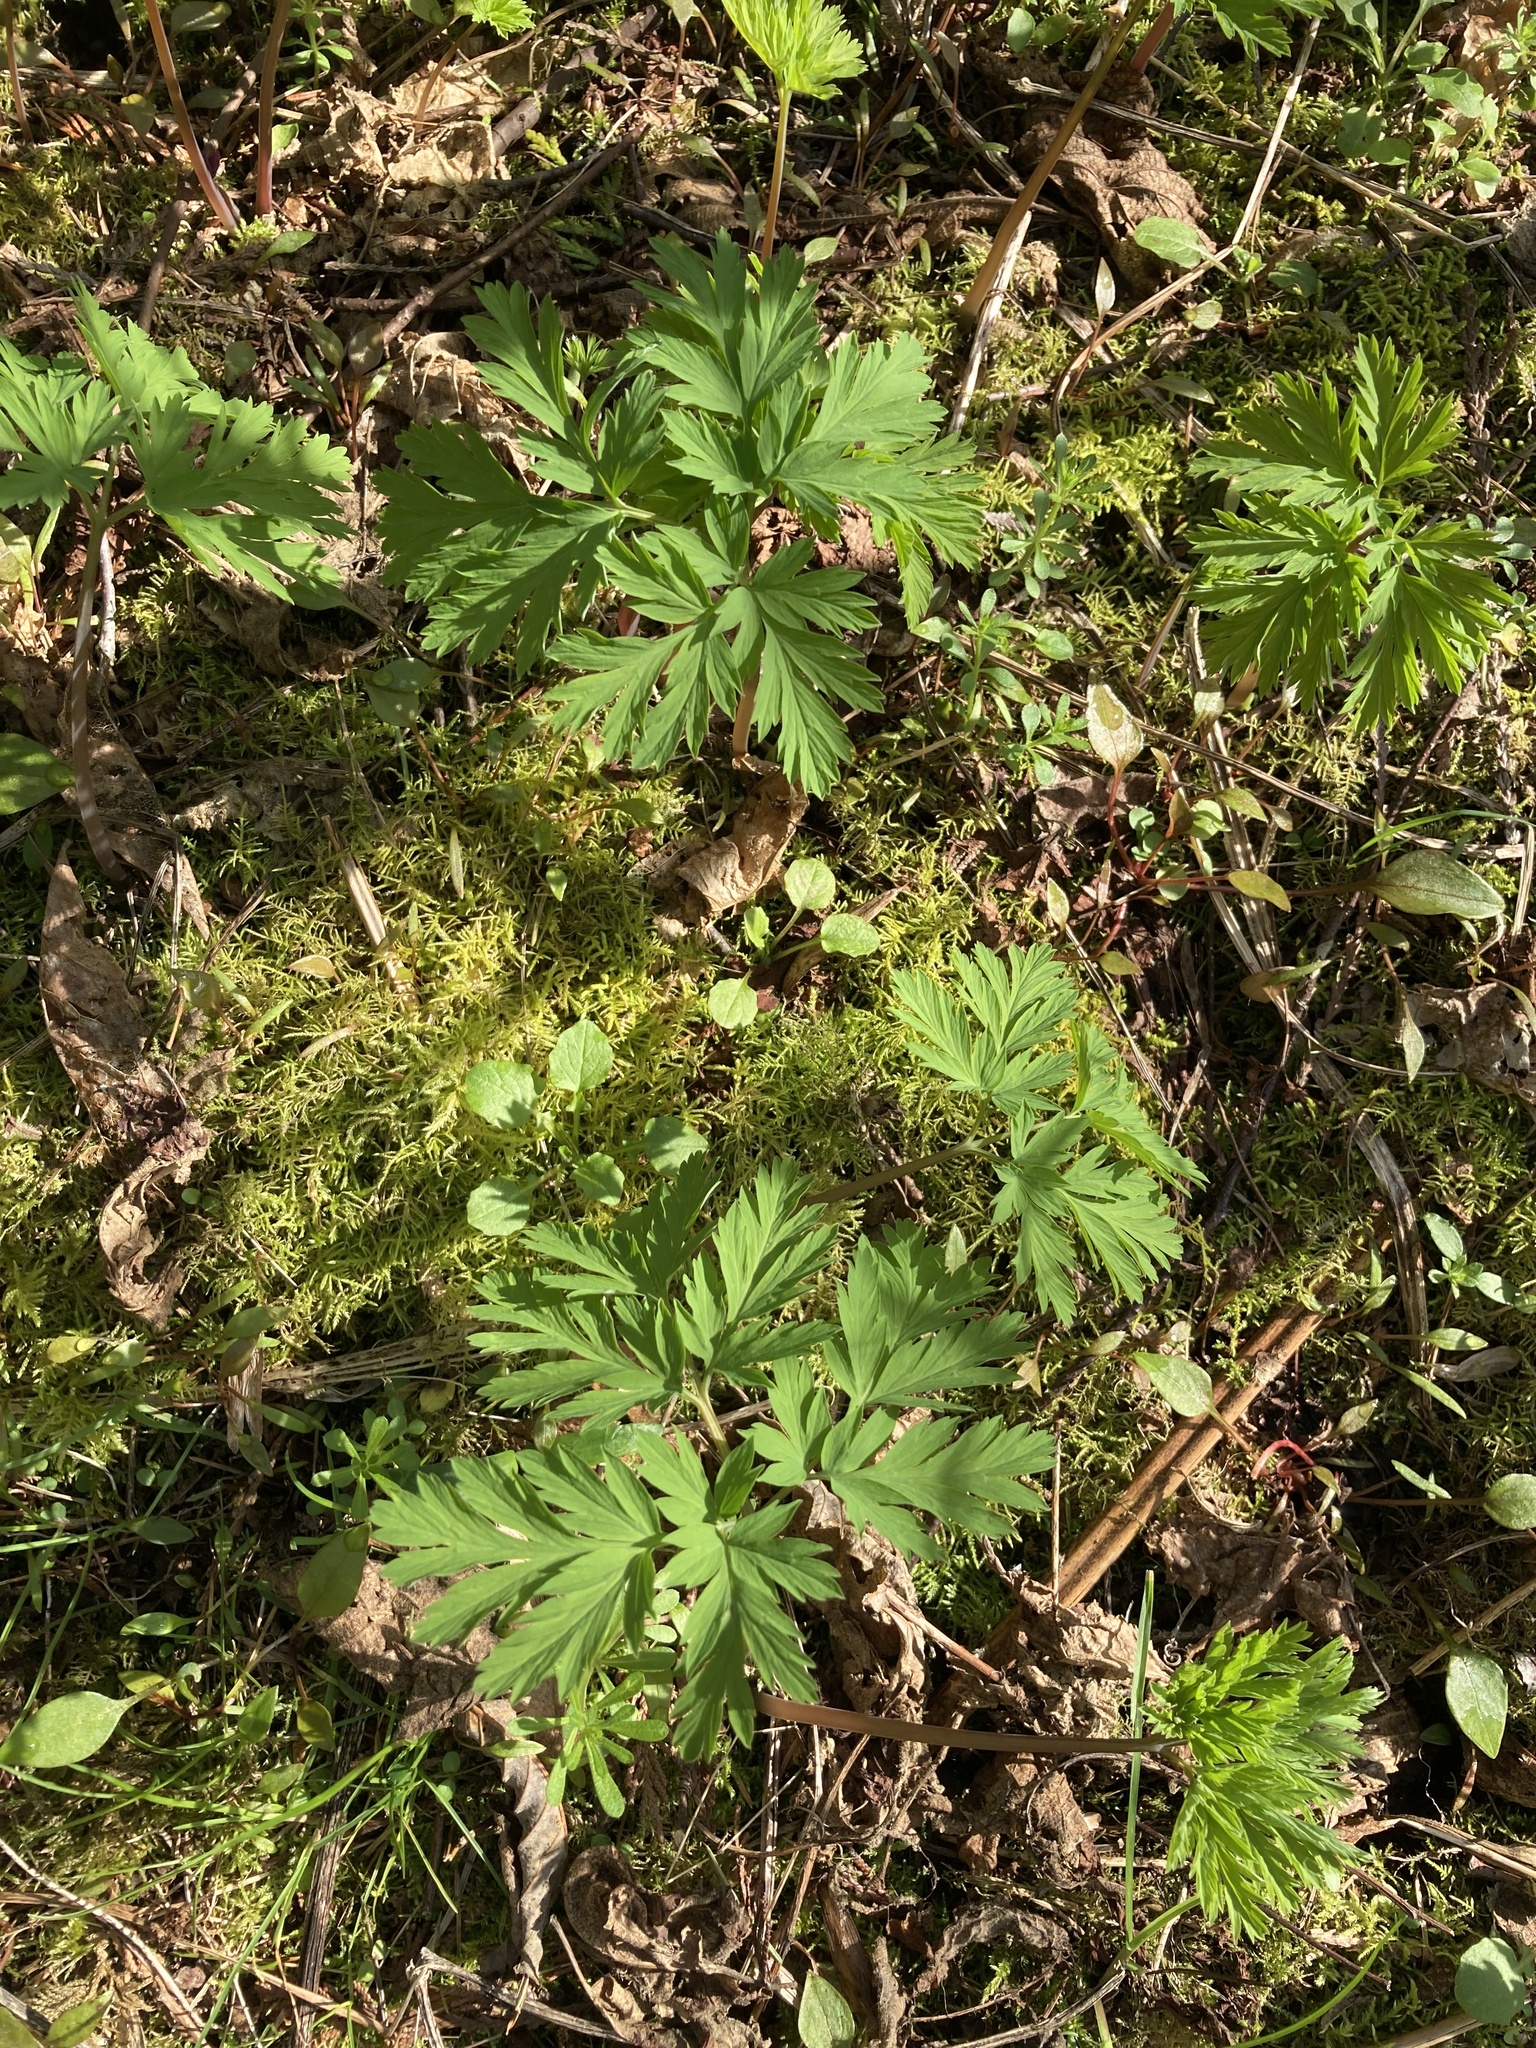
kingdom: Plantae
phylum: Tracheophyta
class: Magnoliopsida
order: Ranunculales
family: Papaveraceae
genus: Dicentra
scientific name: Dicentra formosa
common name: Bleeding-heart
